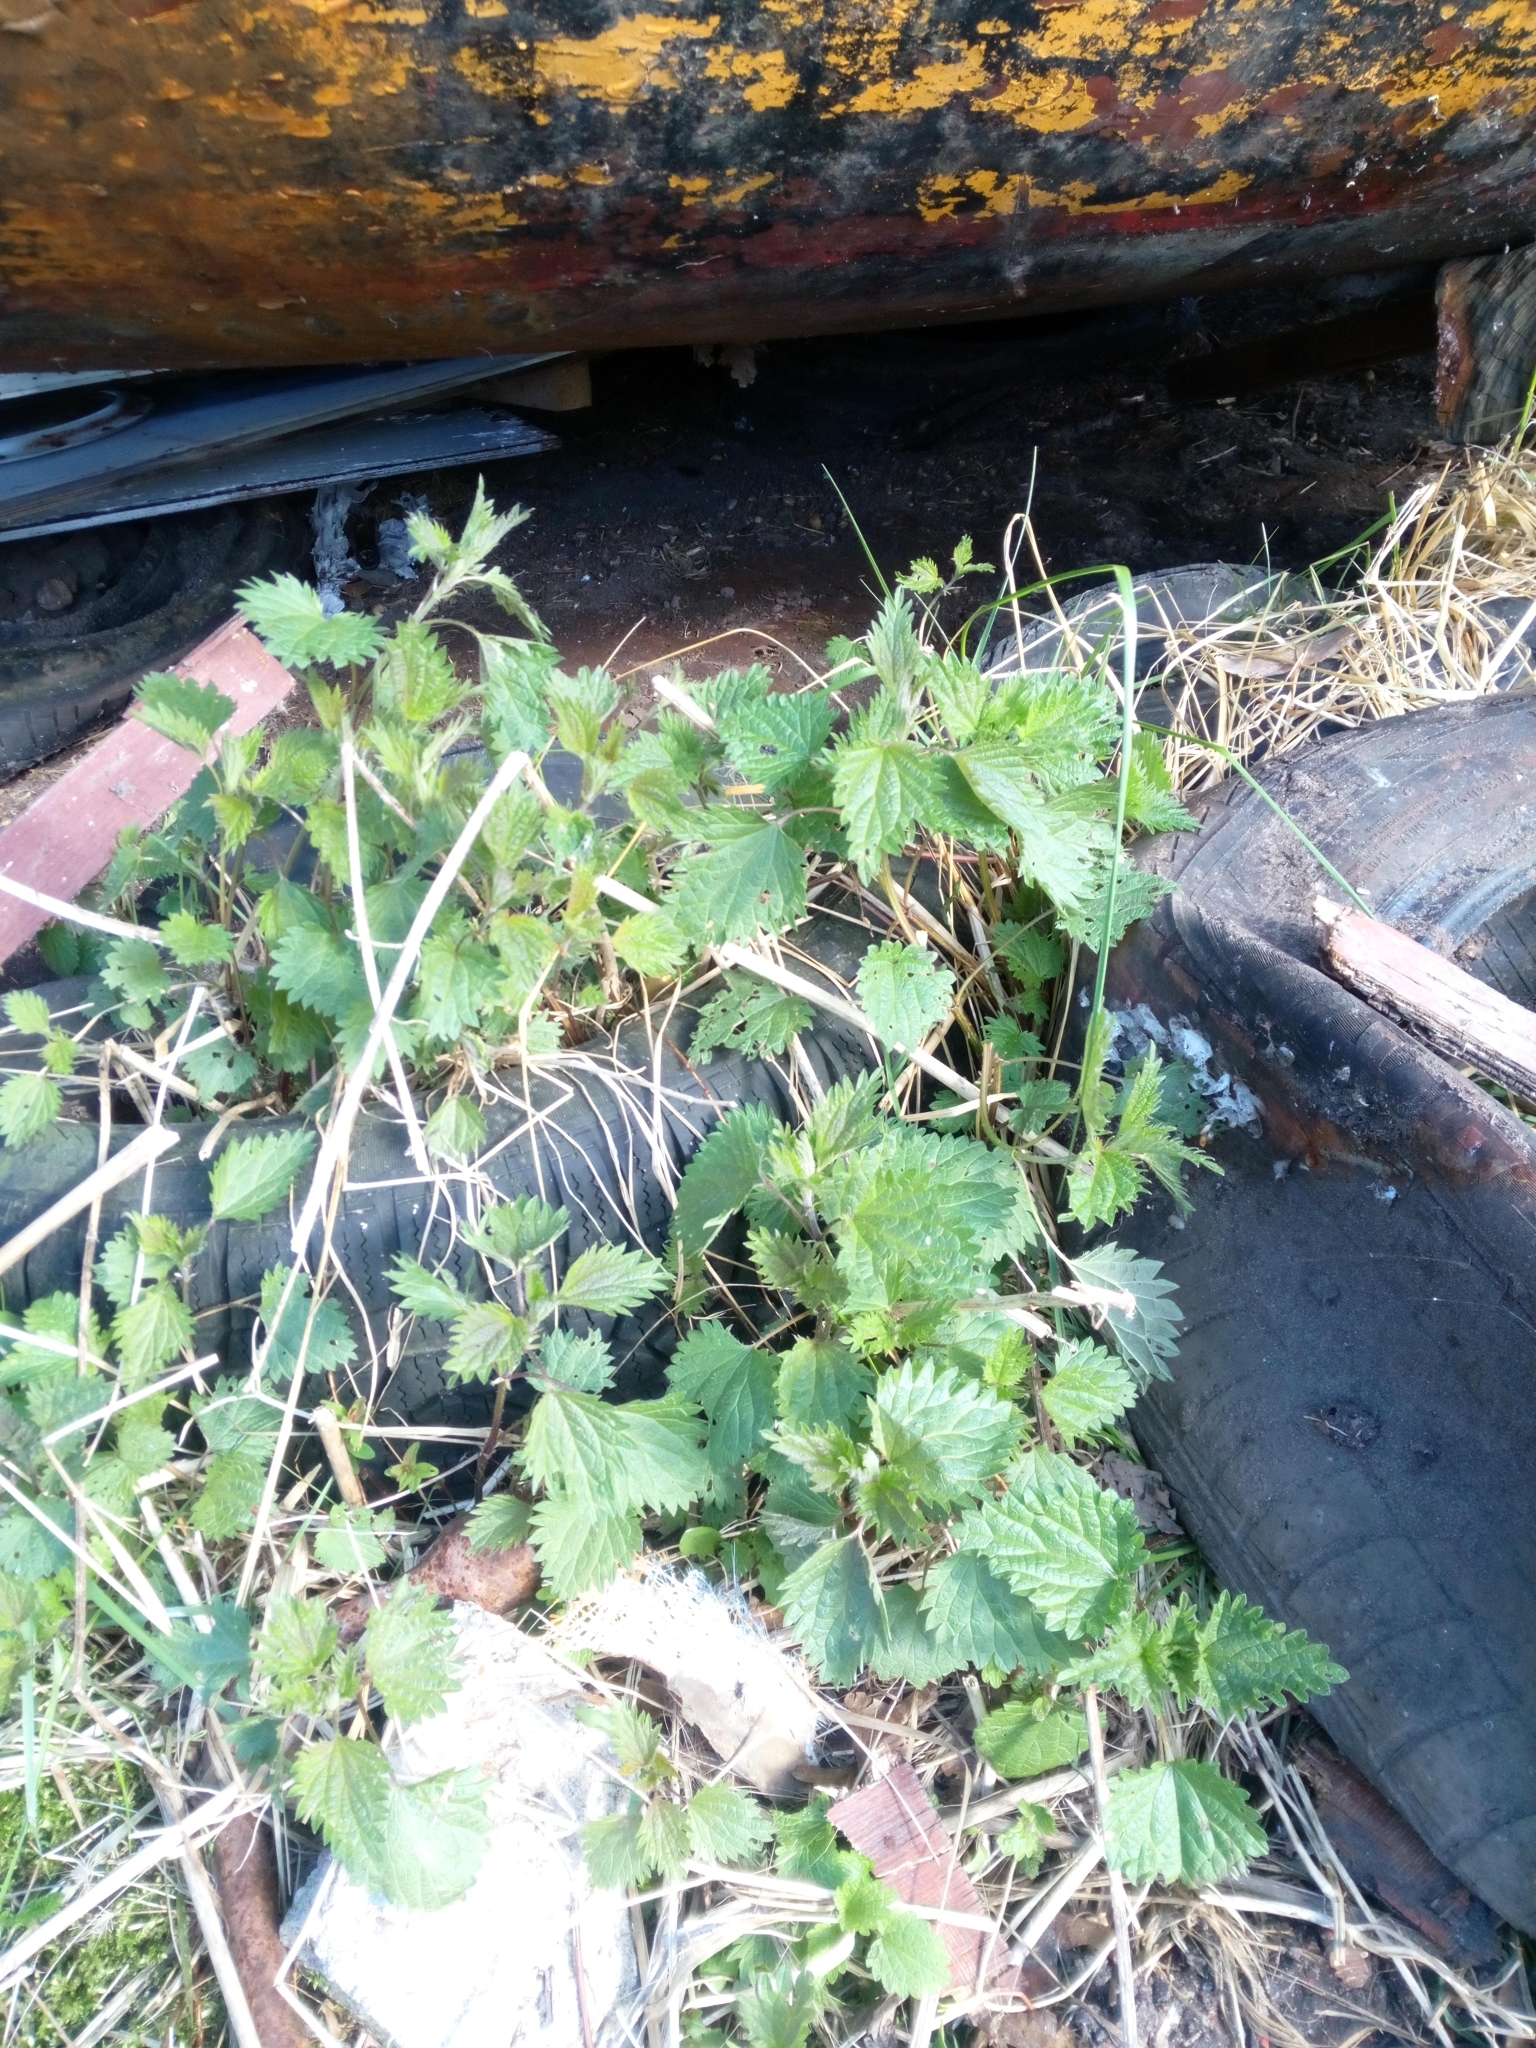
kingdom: Plantae
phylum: Tracheophyta
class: Magnoliopsida
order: Rosales
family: Urticaceae
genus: Urtica
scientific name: Urtica dioica
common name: Common nettle
